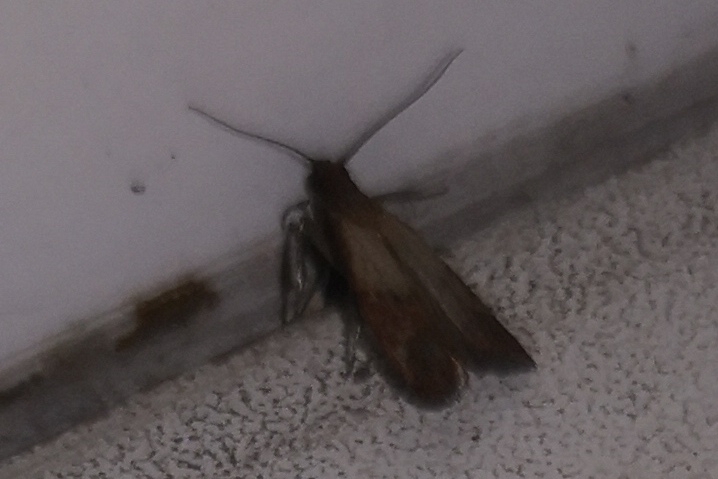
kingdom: Animalia
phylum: Arthropoda
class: Insecta
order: Lepidoptera
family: Pyralidae
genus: Plodia
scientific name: Plodia interpunctella
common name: Indian meal moth
